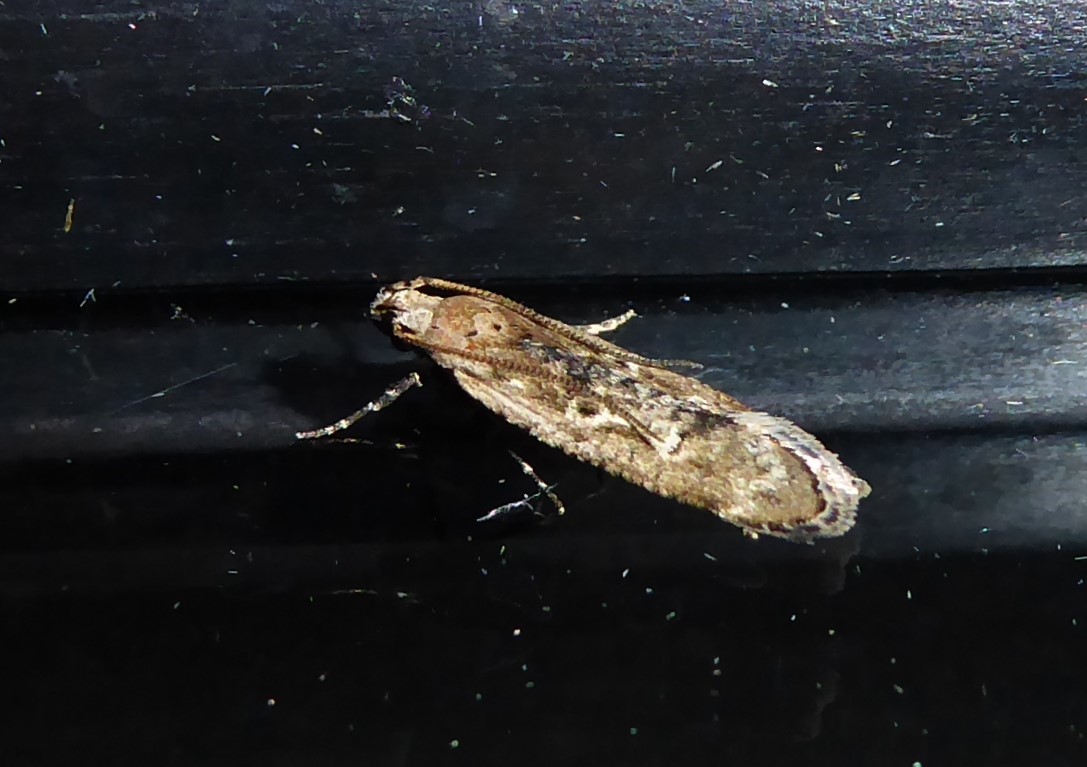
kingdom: Animalia
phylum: Arthropoda
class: Insecta
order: Lepidoptera
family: Gelechiidae
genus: Anisoplaca
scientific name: Anisoplaca achyrota
